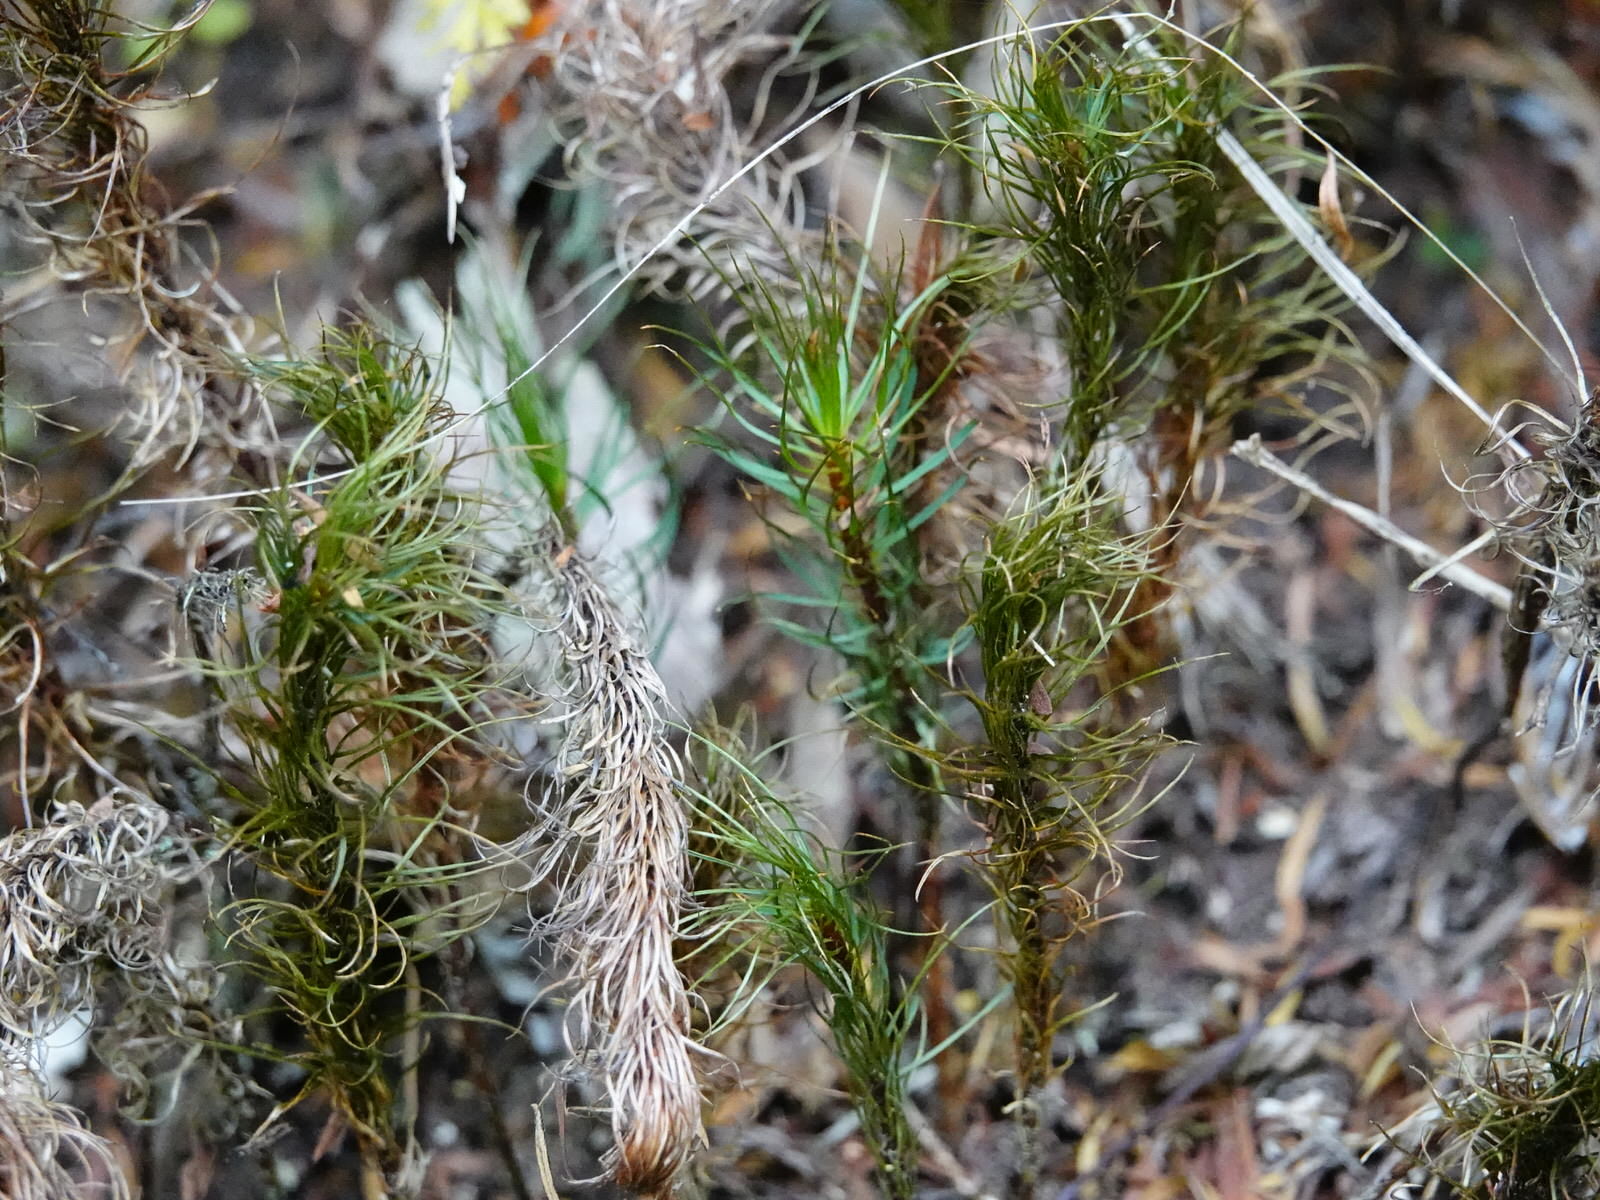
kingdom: Plantae
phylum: Bryophyta
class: Polytrichopsida
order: Polytrichales
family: Polytrichaceae
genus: Dawsonia
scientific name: Dawsonia superba
